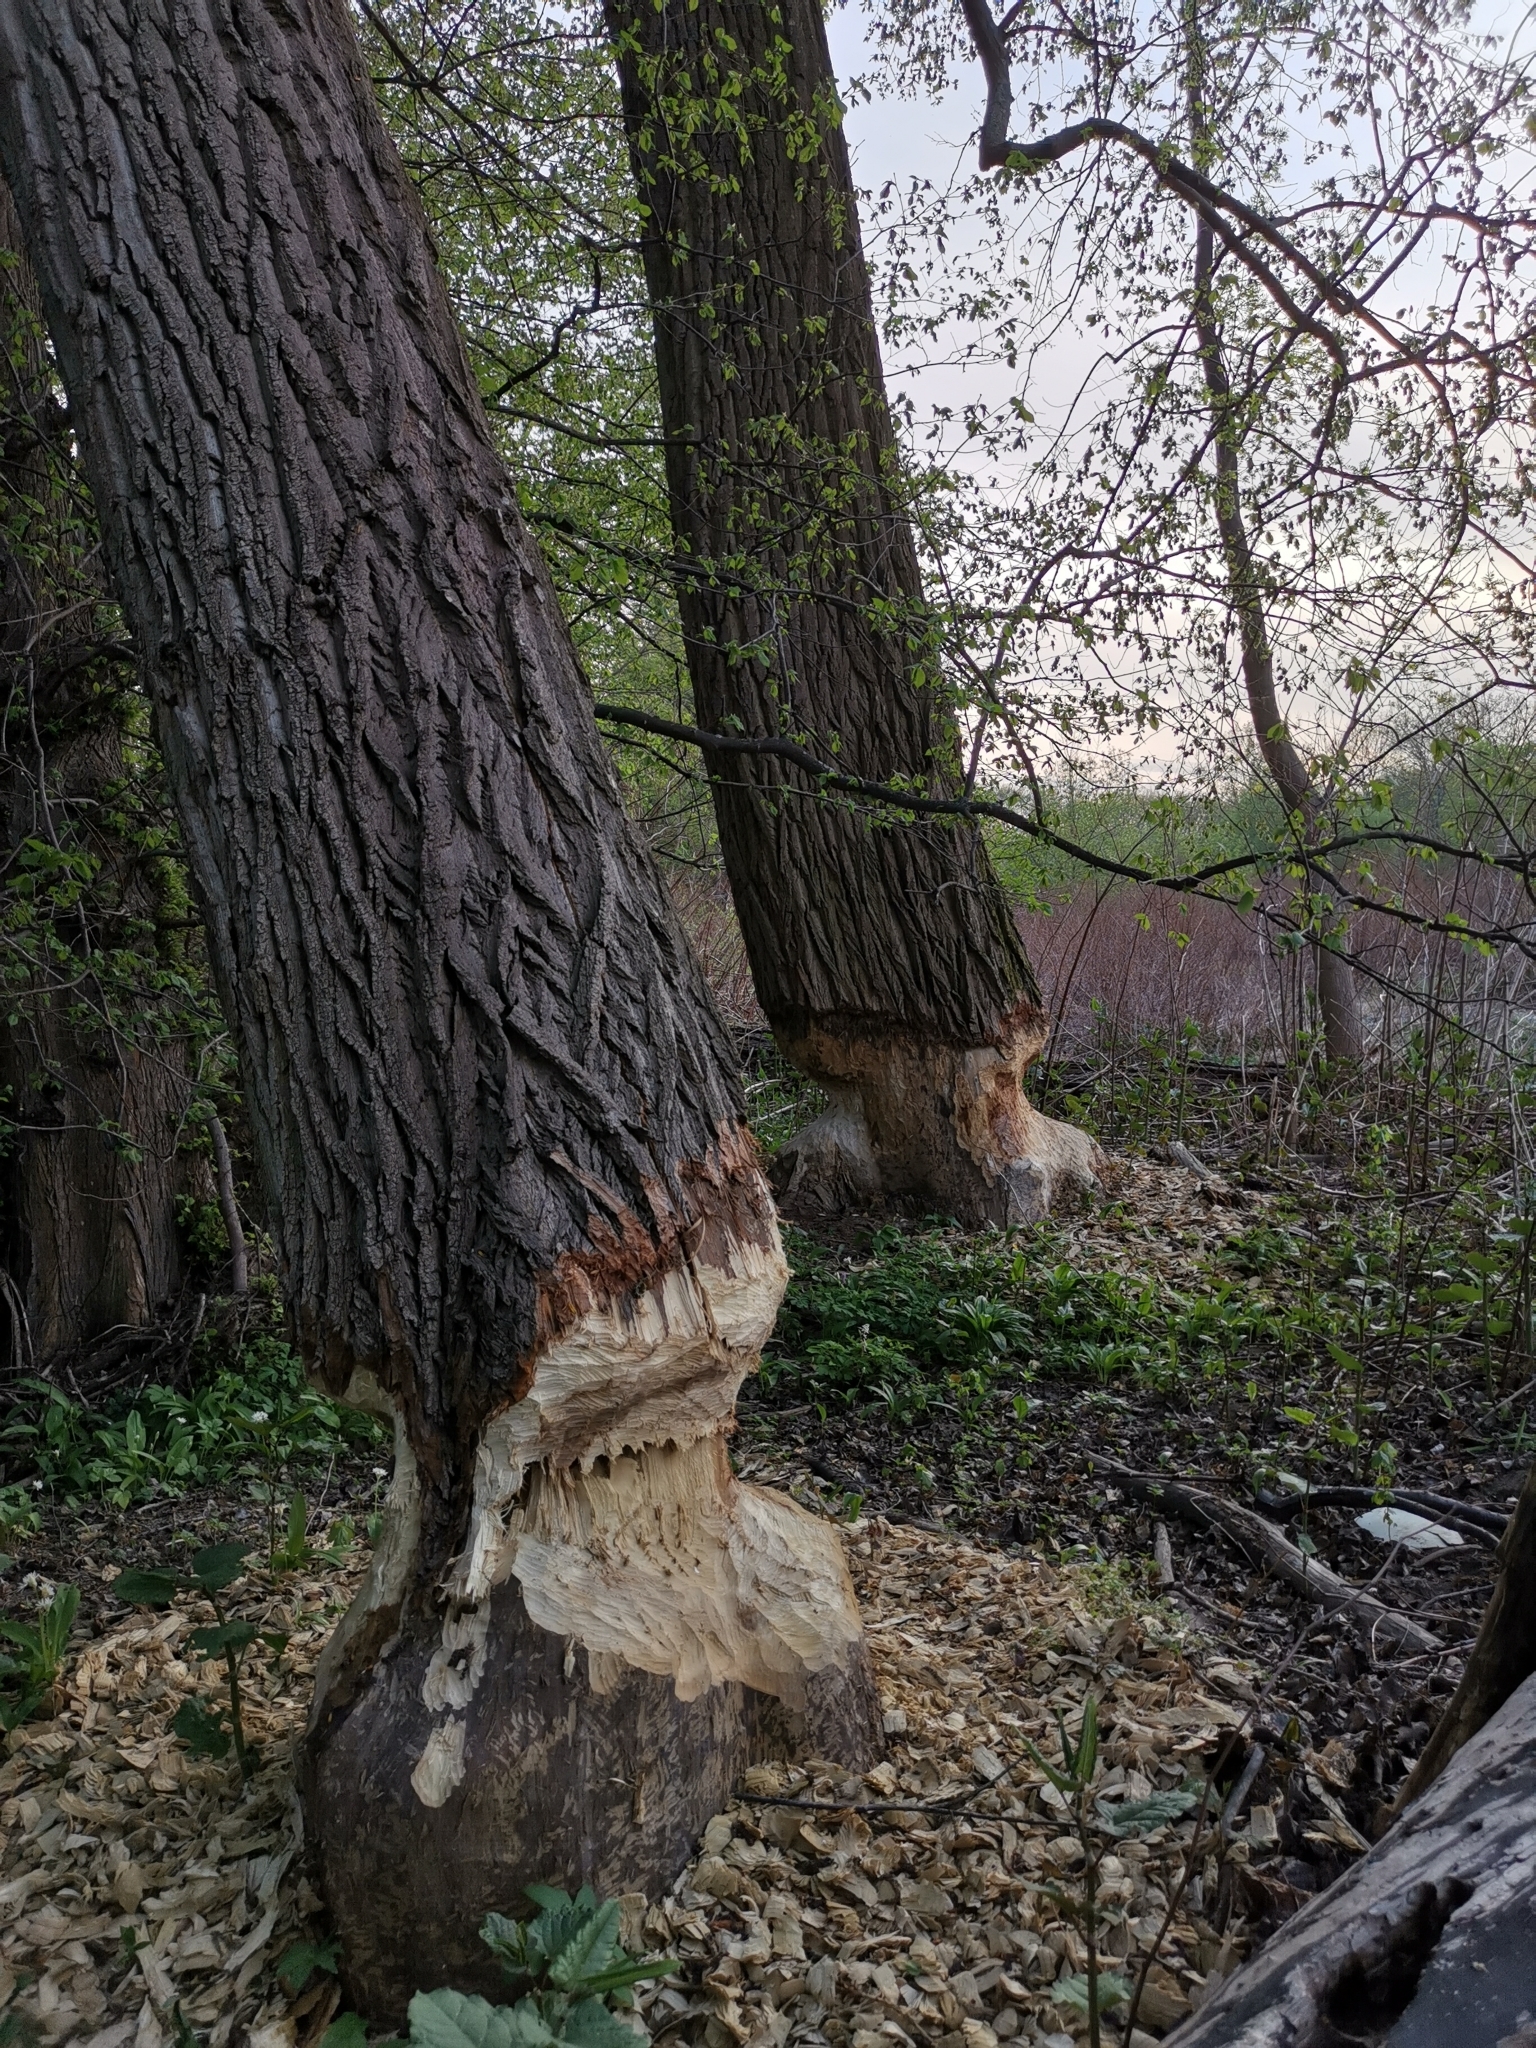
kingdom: Animalia
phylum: Chordata
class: Mammalia
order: Rodentia
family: Castoridae
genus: Castor
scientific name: Castor fiber
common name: Eurasian beaver
